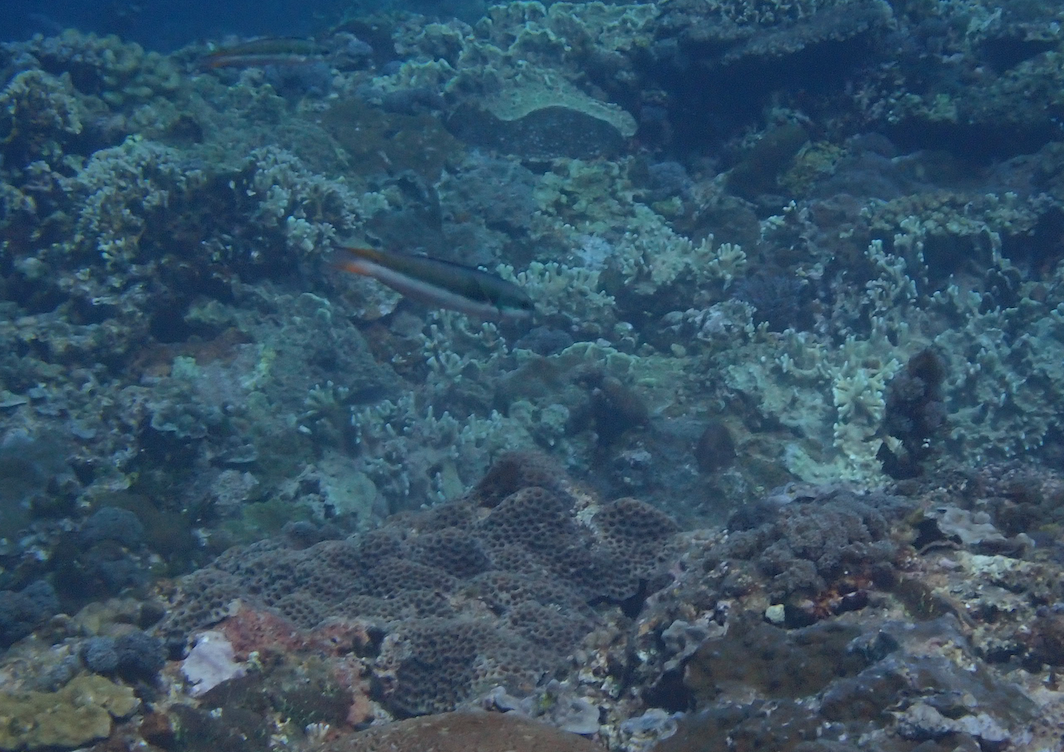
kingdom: Animalia
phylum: Chordata
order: Perciformes
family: Labridae
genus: Thalassoma
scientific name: Thalassoma amblycephalum
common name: Bluehead wrasse
